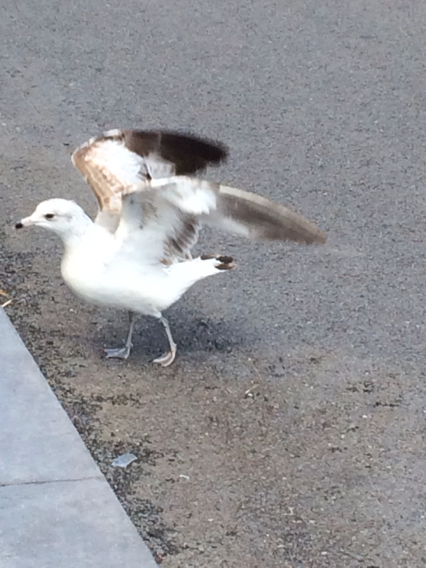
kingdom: Animalia
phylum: Chordata
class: Aves
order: Charadriiformes
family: Laridae
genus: Larus
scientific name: Larus delawarensis
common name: Ring-billed gull
